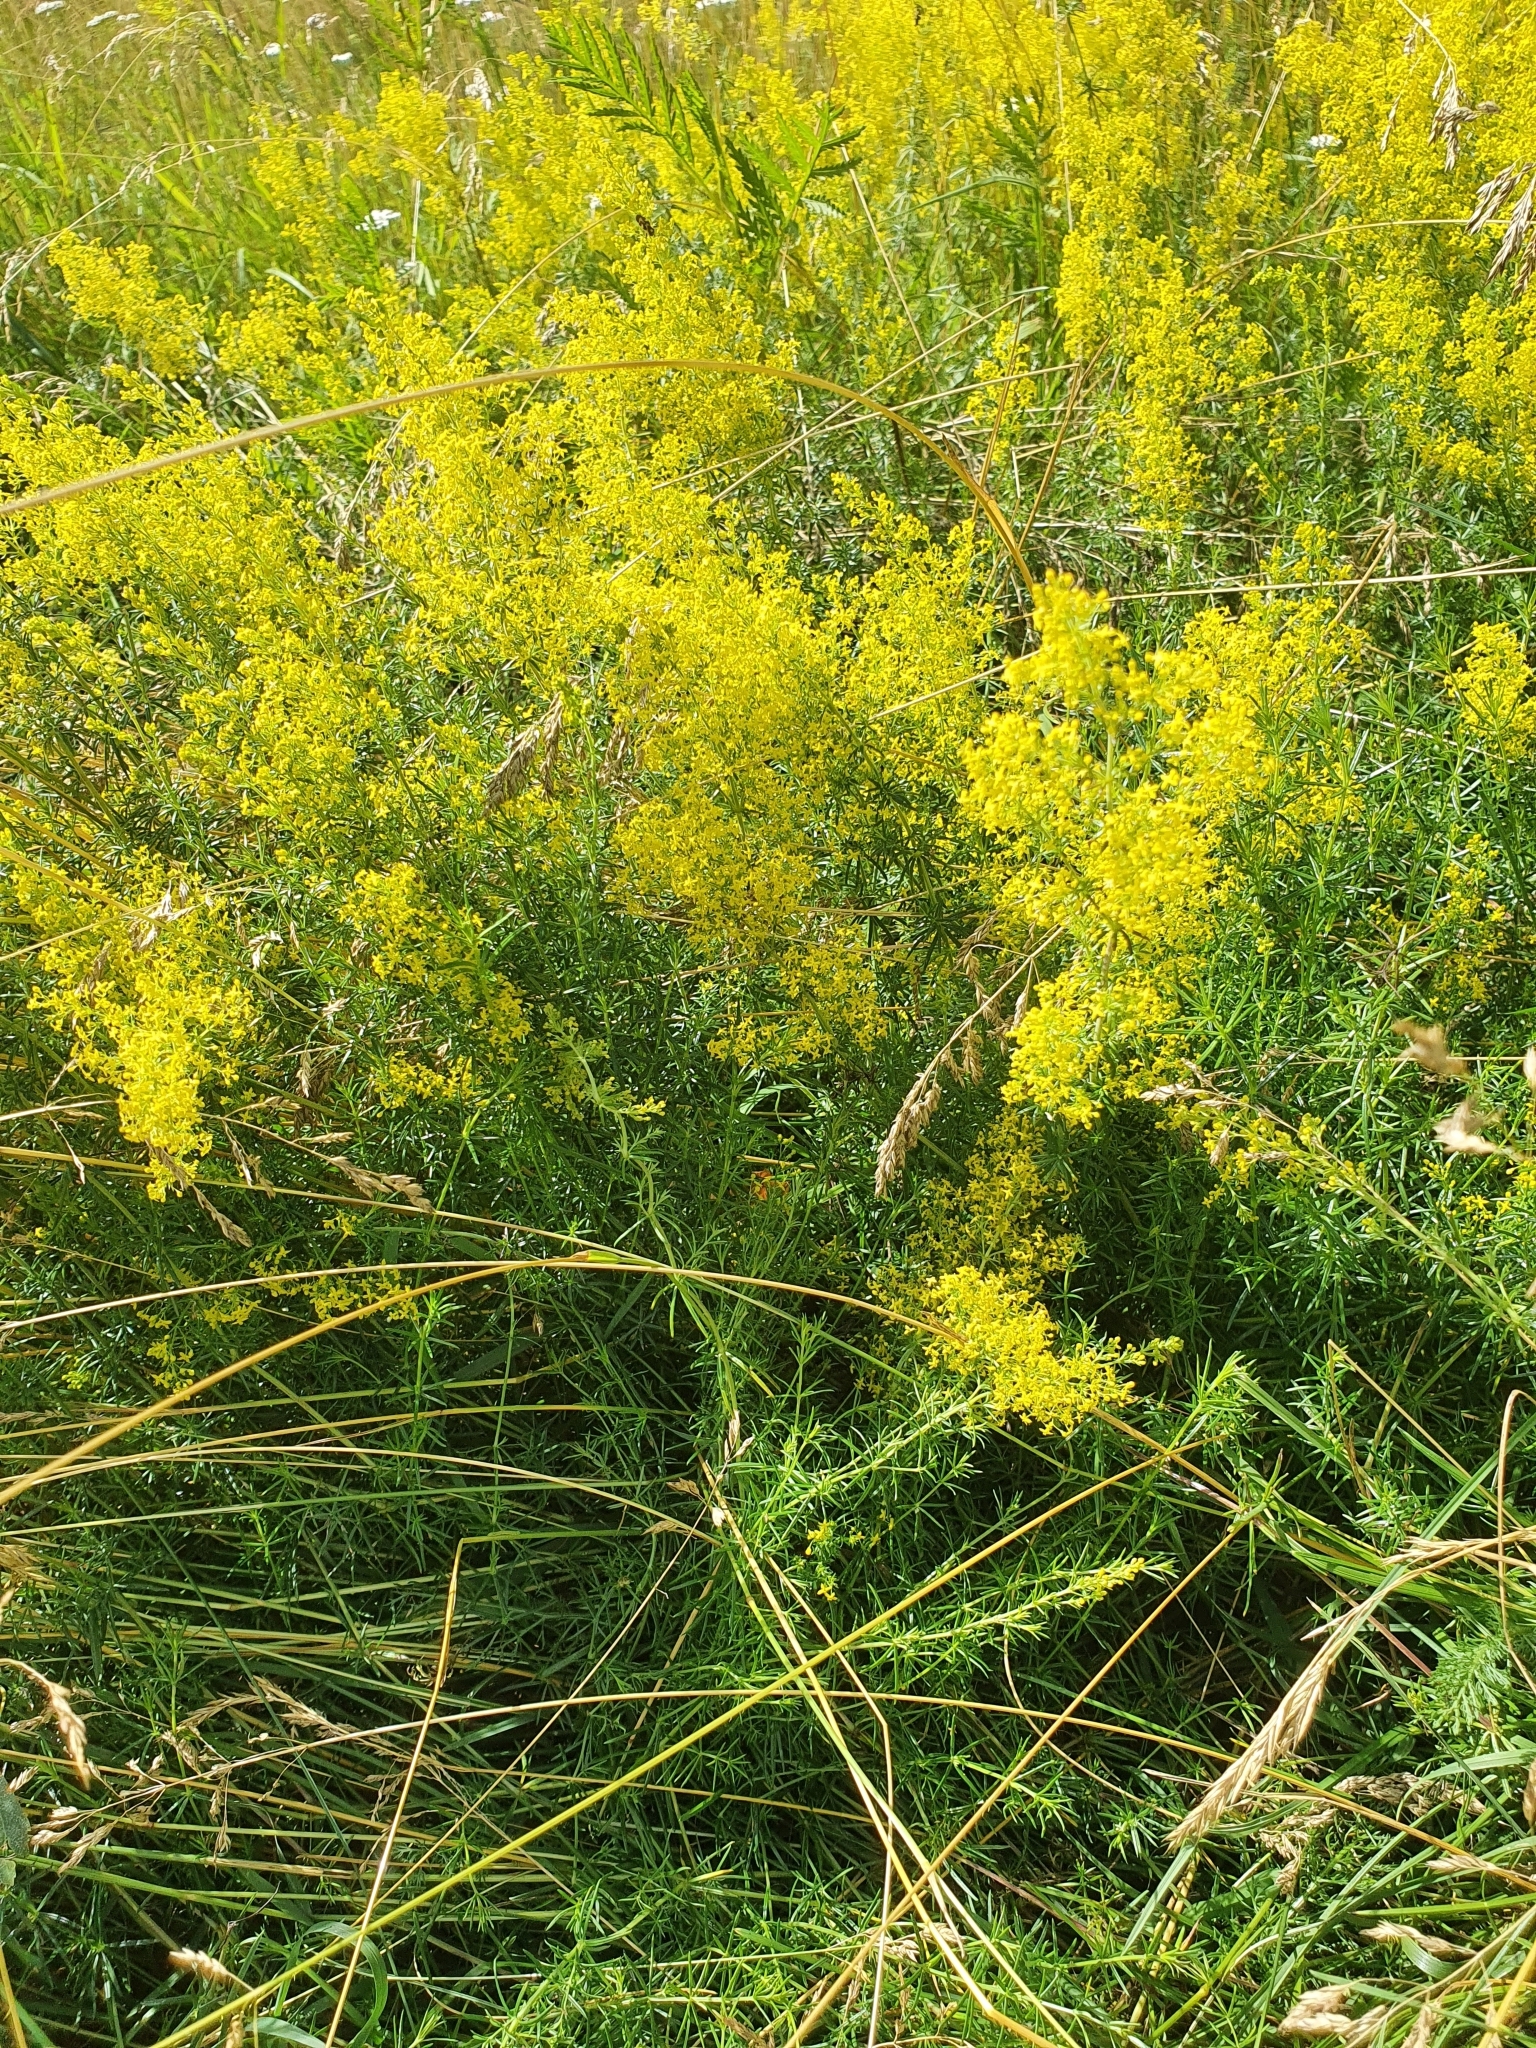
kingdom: Plantae
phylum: Tracheophyta
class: Magnoliopsida
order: Gentianales
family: Rubiaceae
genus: Galium
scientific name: Galium verum
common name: Lady's bedstraw
